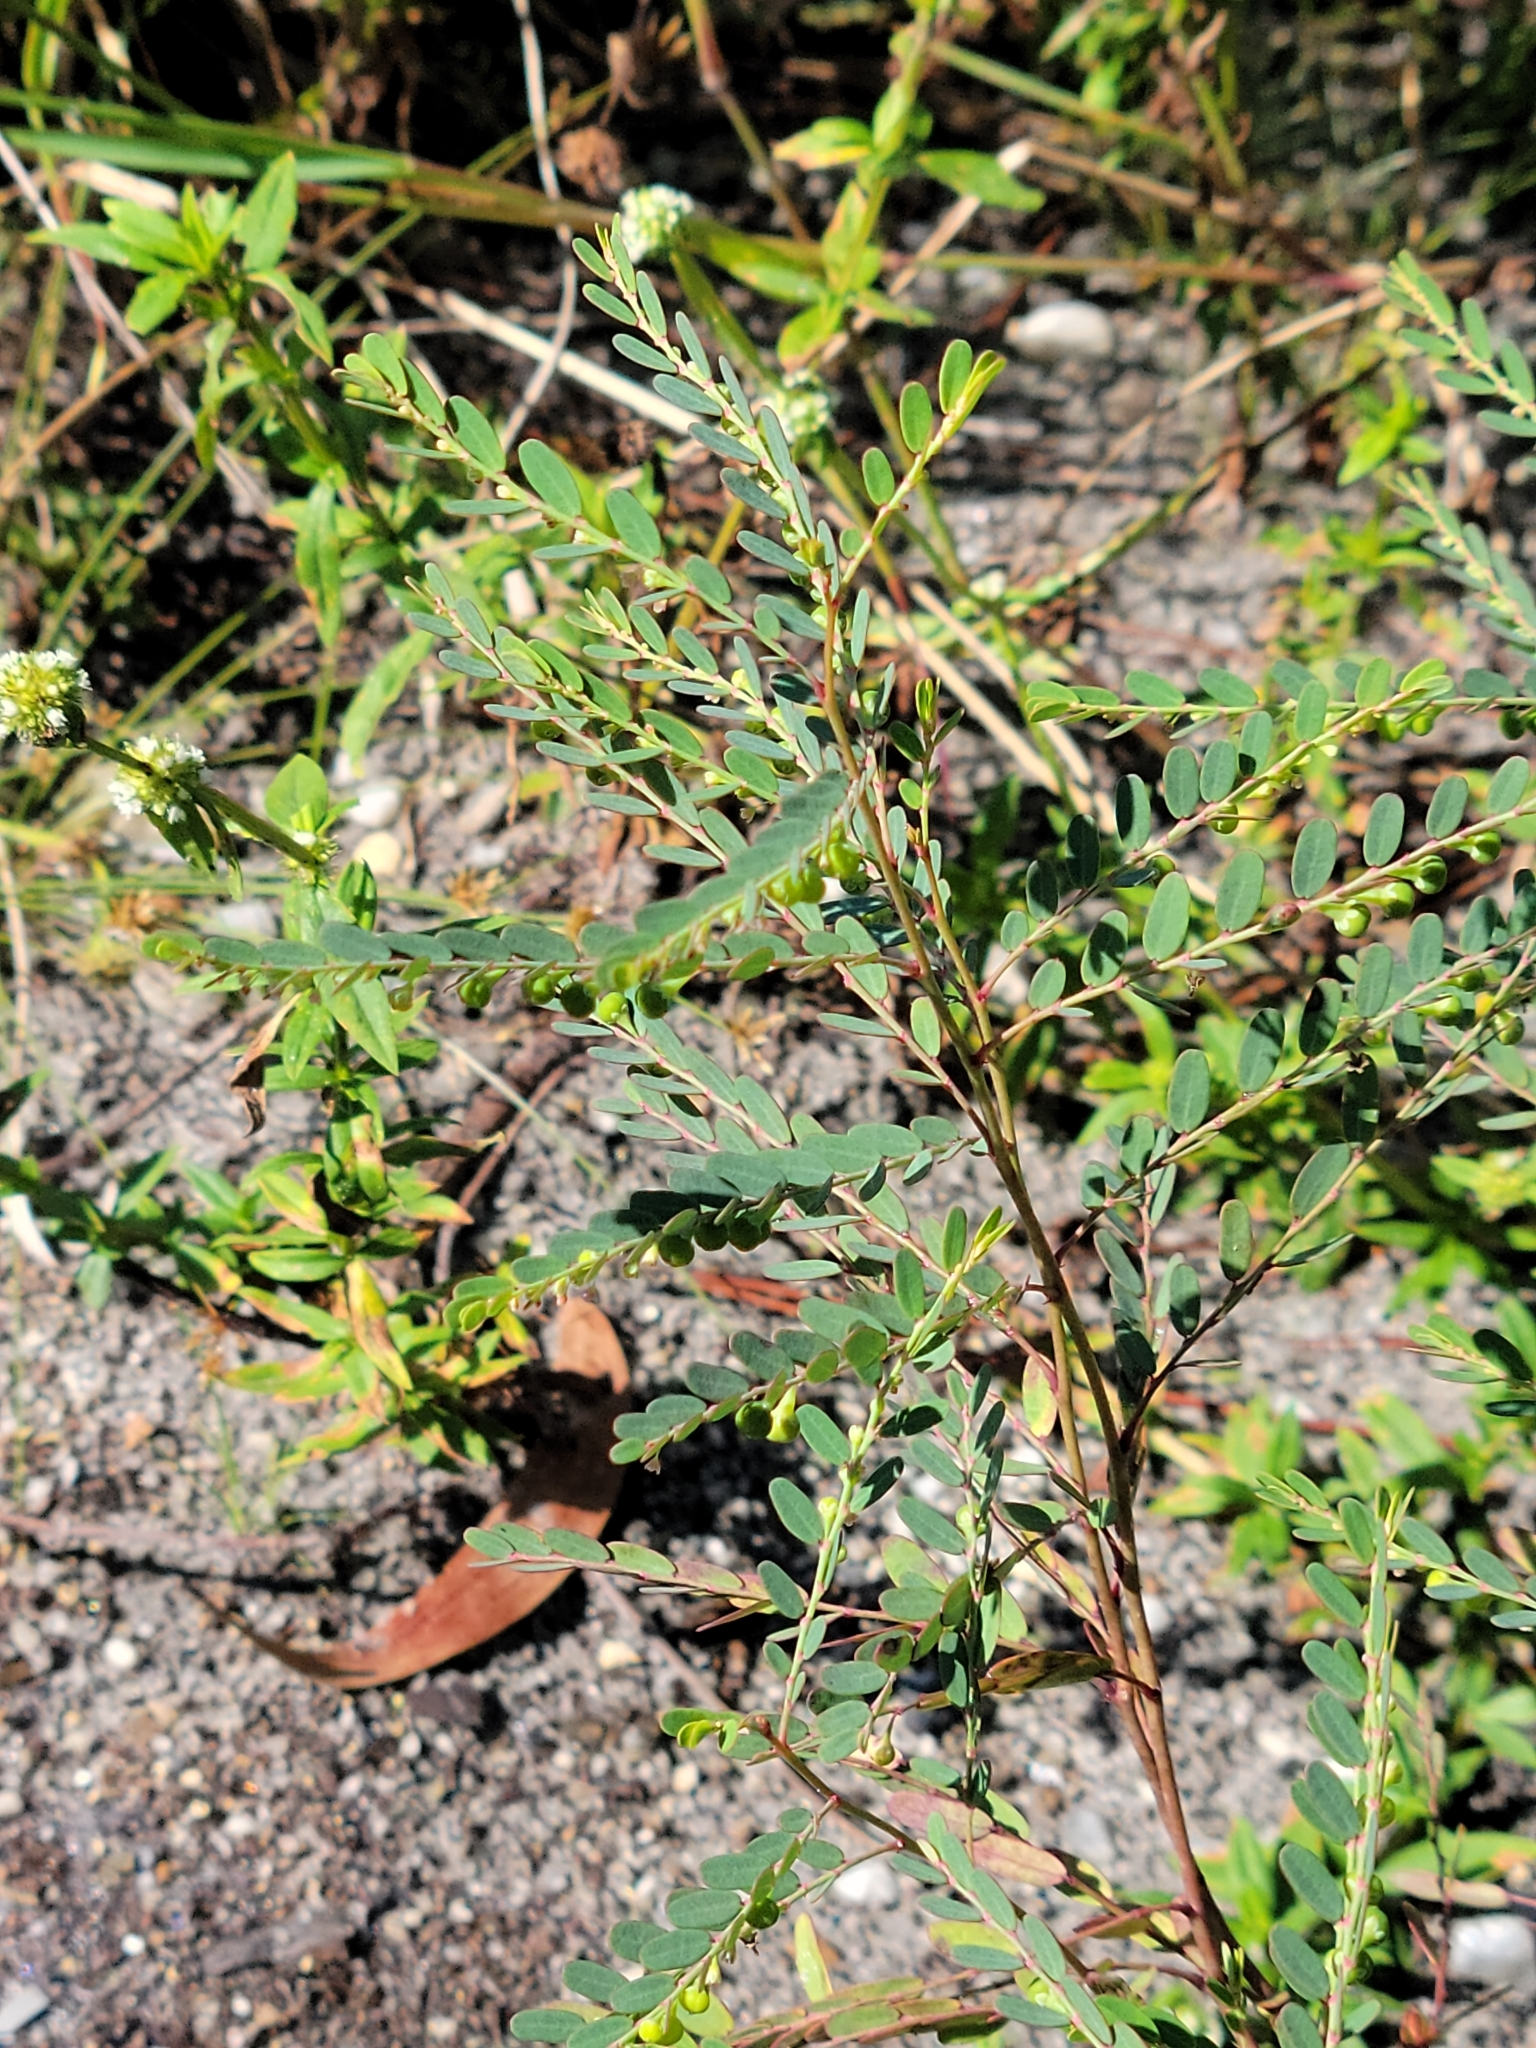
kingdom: Plantae
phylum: Tracheophyta
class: Magnoliopsida
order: Malpighiales
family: Phyllanthaceae
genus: Phyllanthus
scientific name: Phyllanthus abnormis
